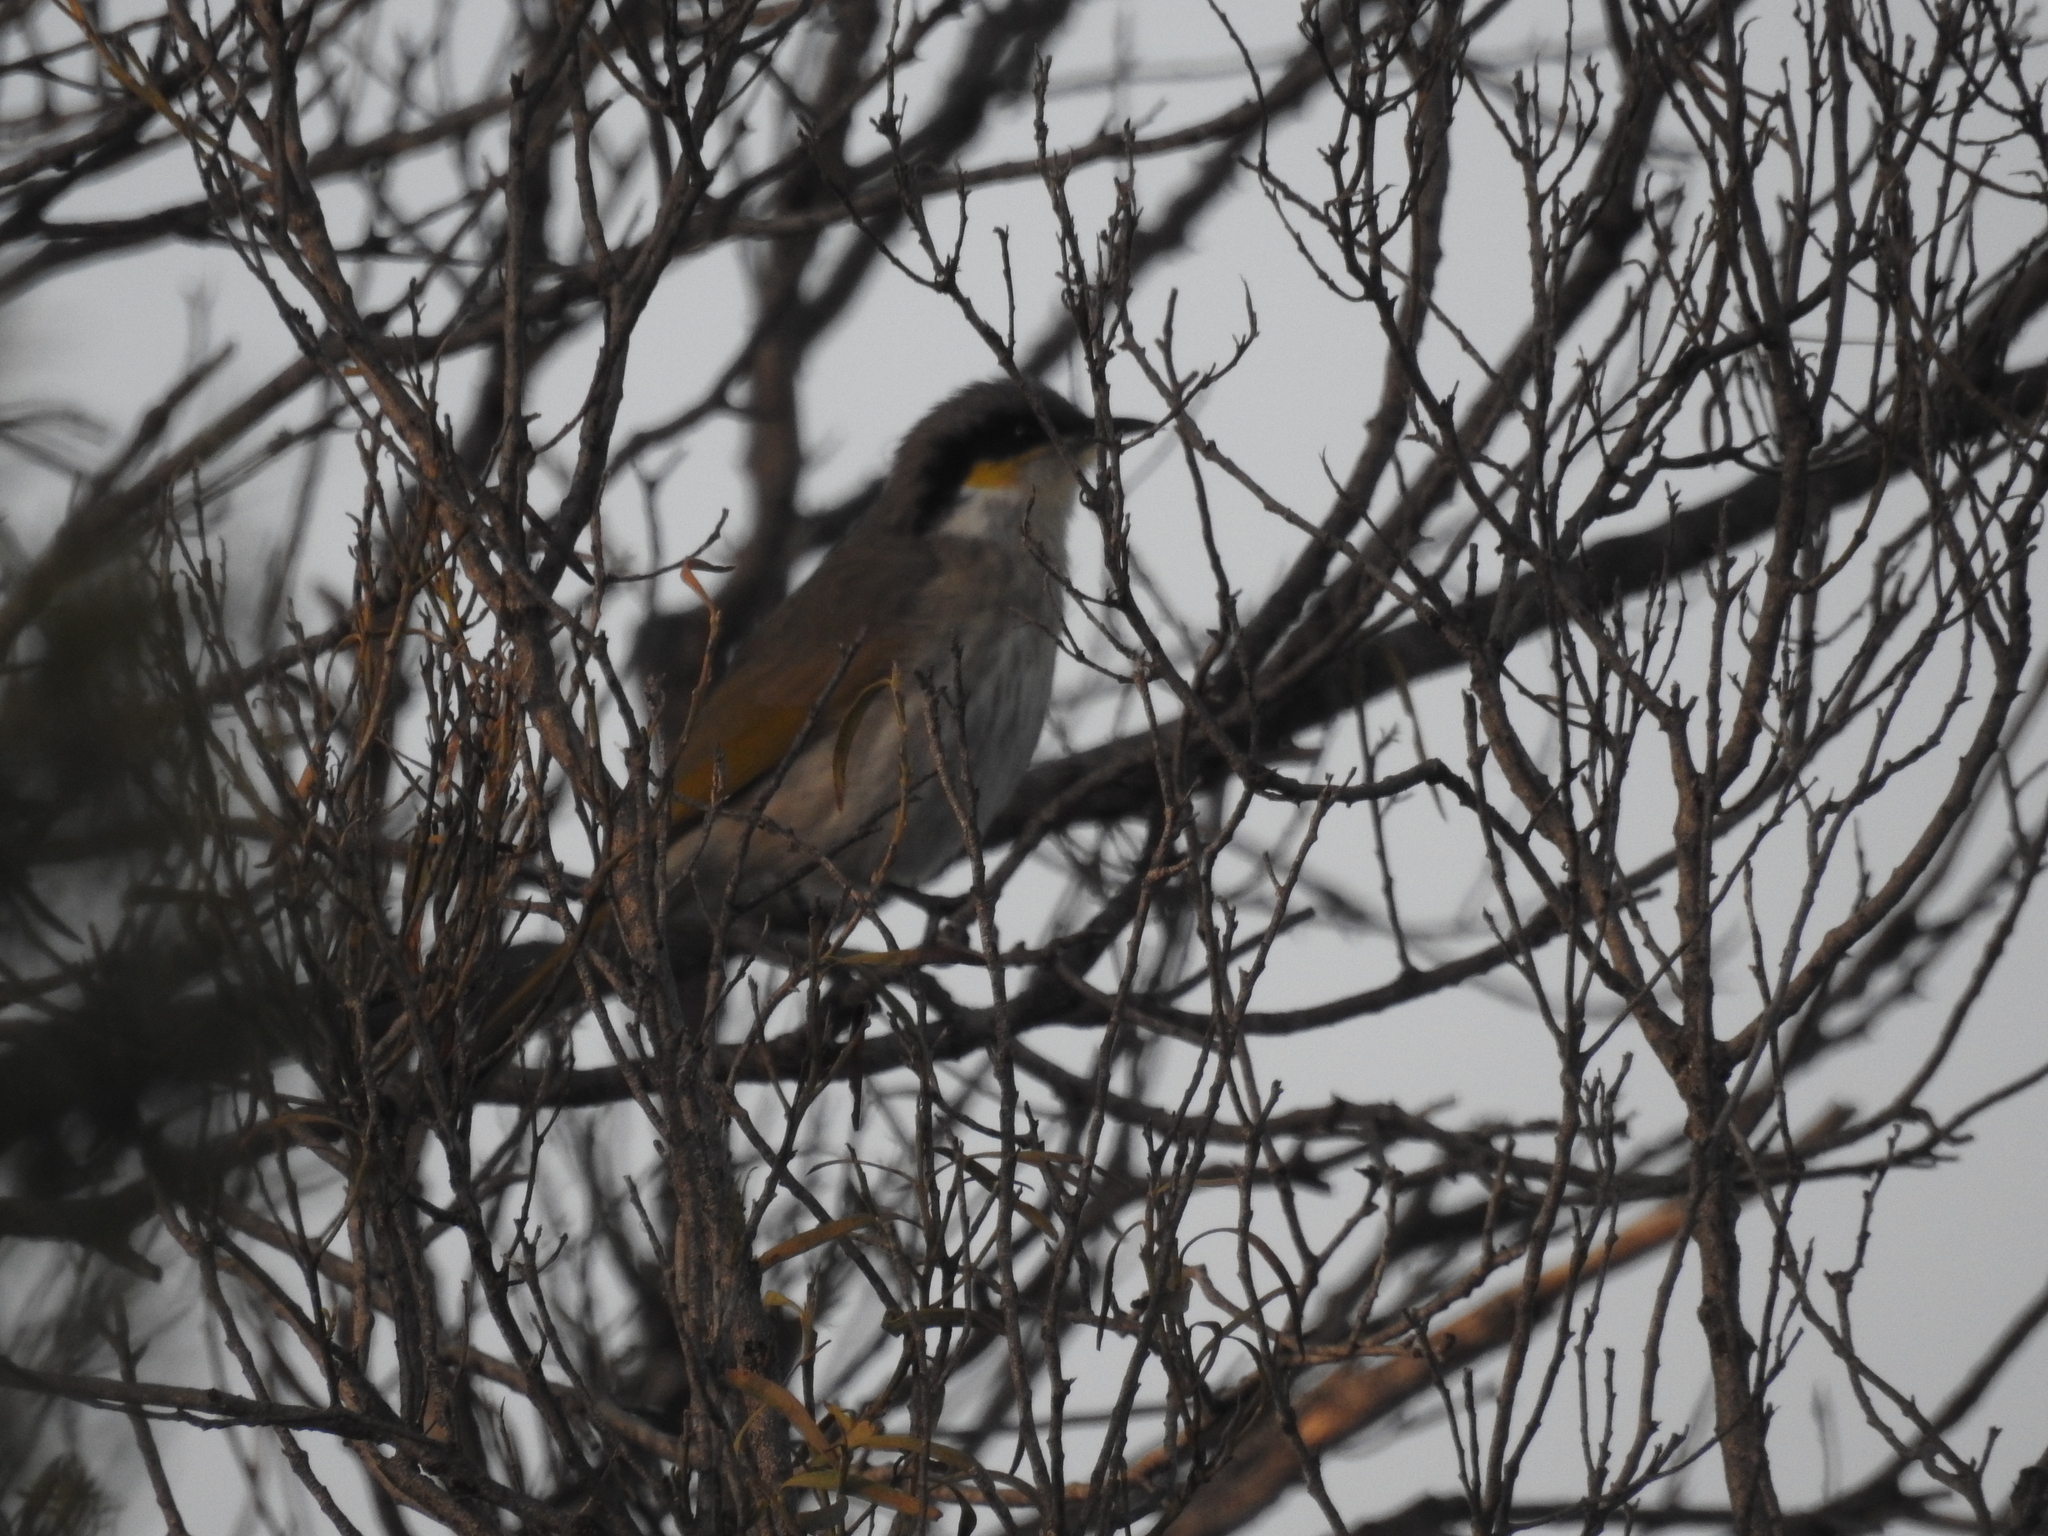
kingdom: Animalia
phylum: Chordata
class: Aves
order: Passeriformes
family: Meliphagidae
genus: Gavicalis
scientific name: Gavicalis virescens
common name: Singing honeyeater
